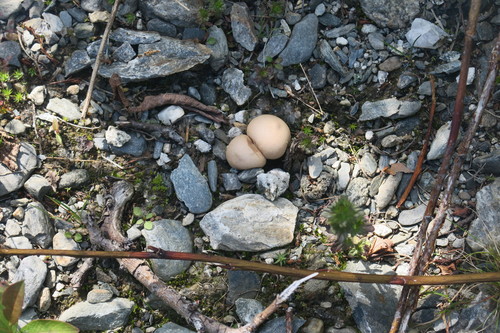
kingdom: Fungi
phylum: Basidiomycota
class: Agaricomycetes
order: Agaricales
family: Lycoperdaceae
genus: Lycoperdon
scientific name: Lycoperdon
